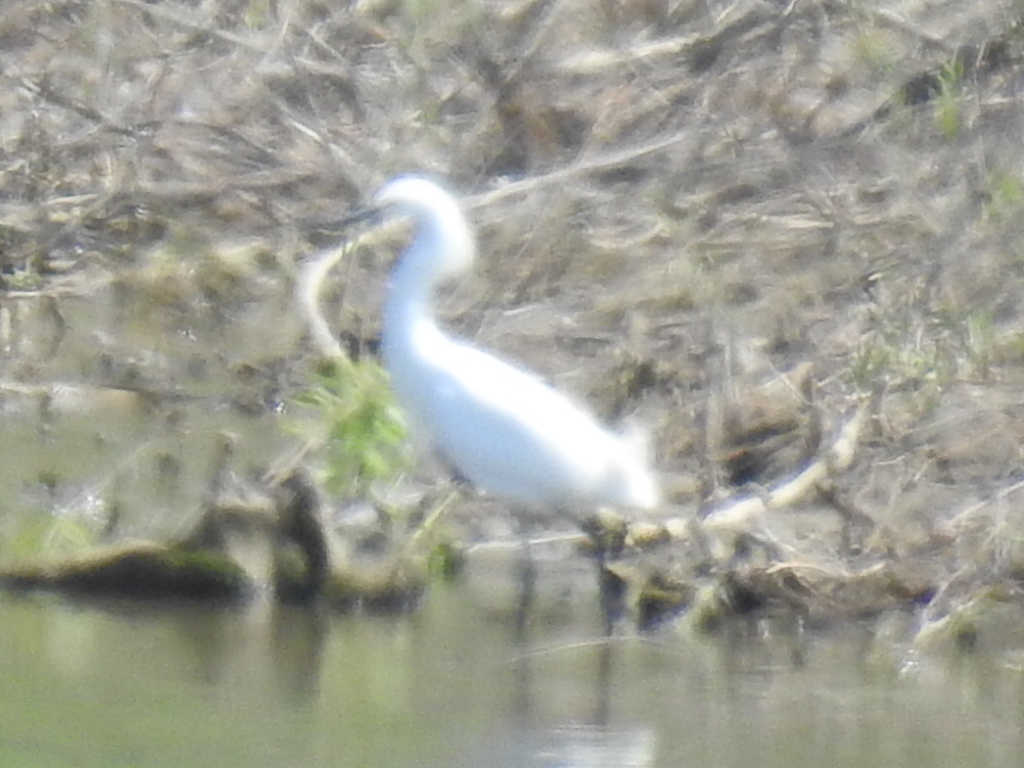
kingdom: Animalia
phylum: Chordata
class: Aves
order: Pelecaniformes
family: Ardeidae
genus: Egretta
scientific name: Egretta thula
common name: Snowy egret
